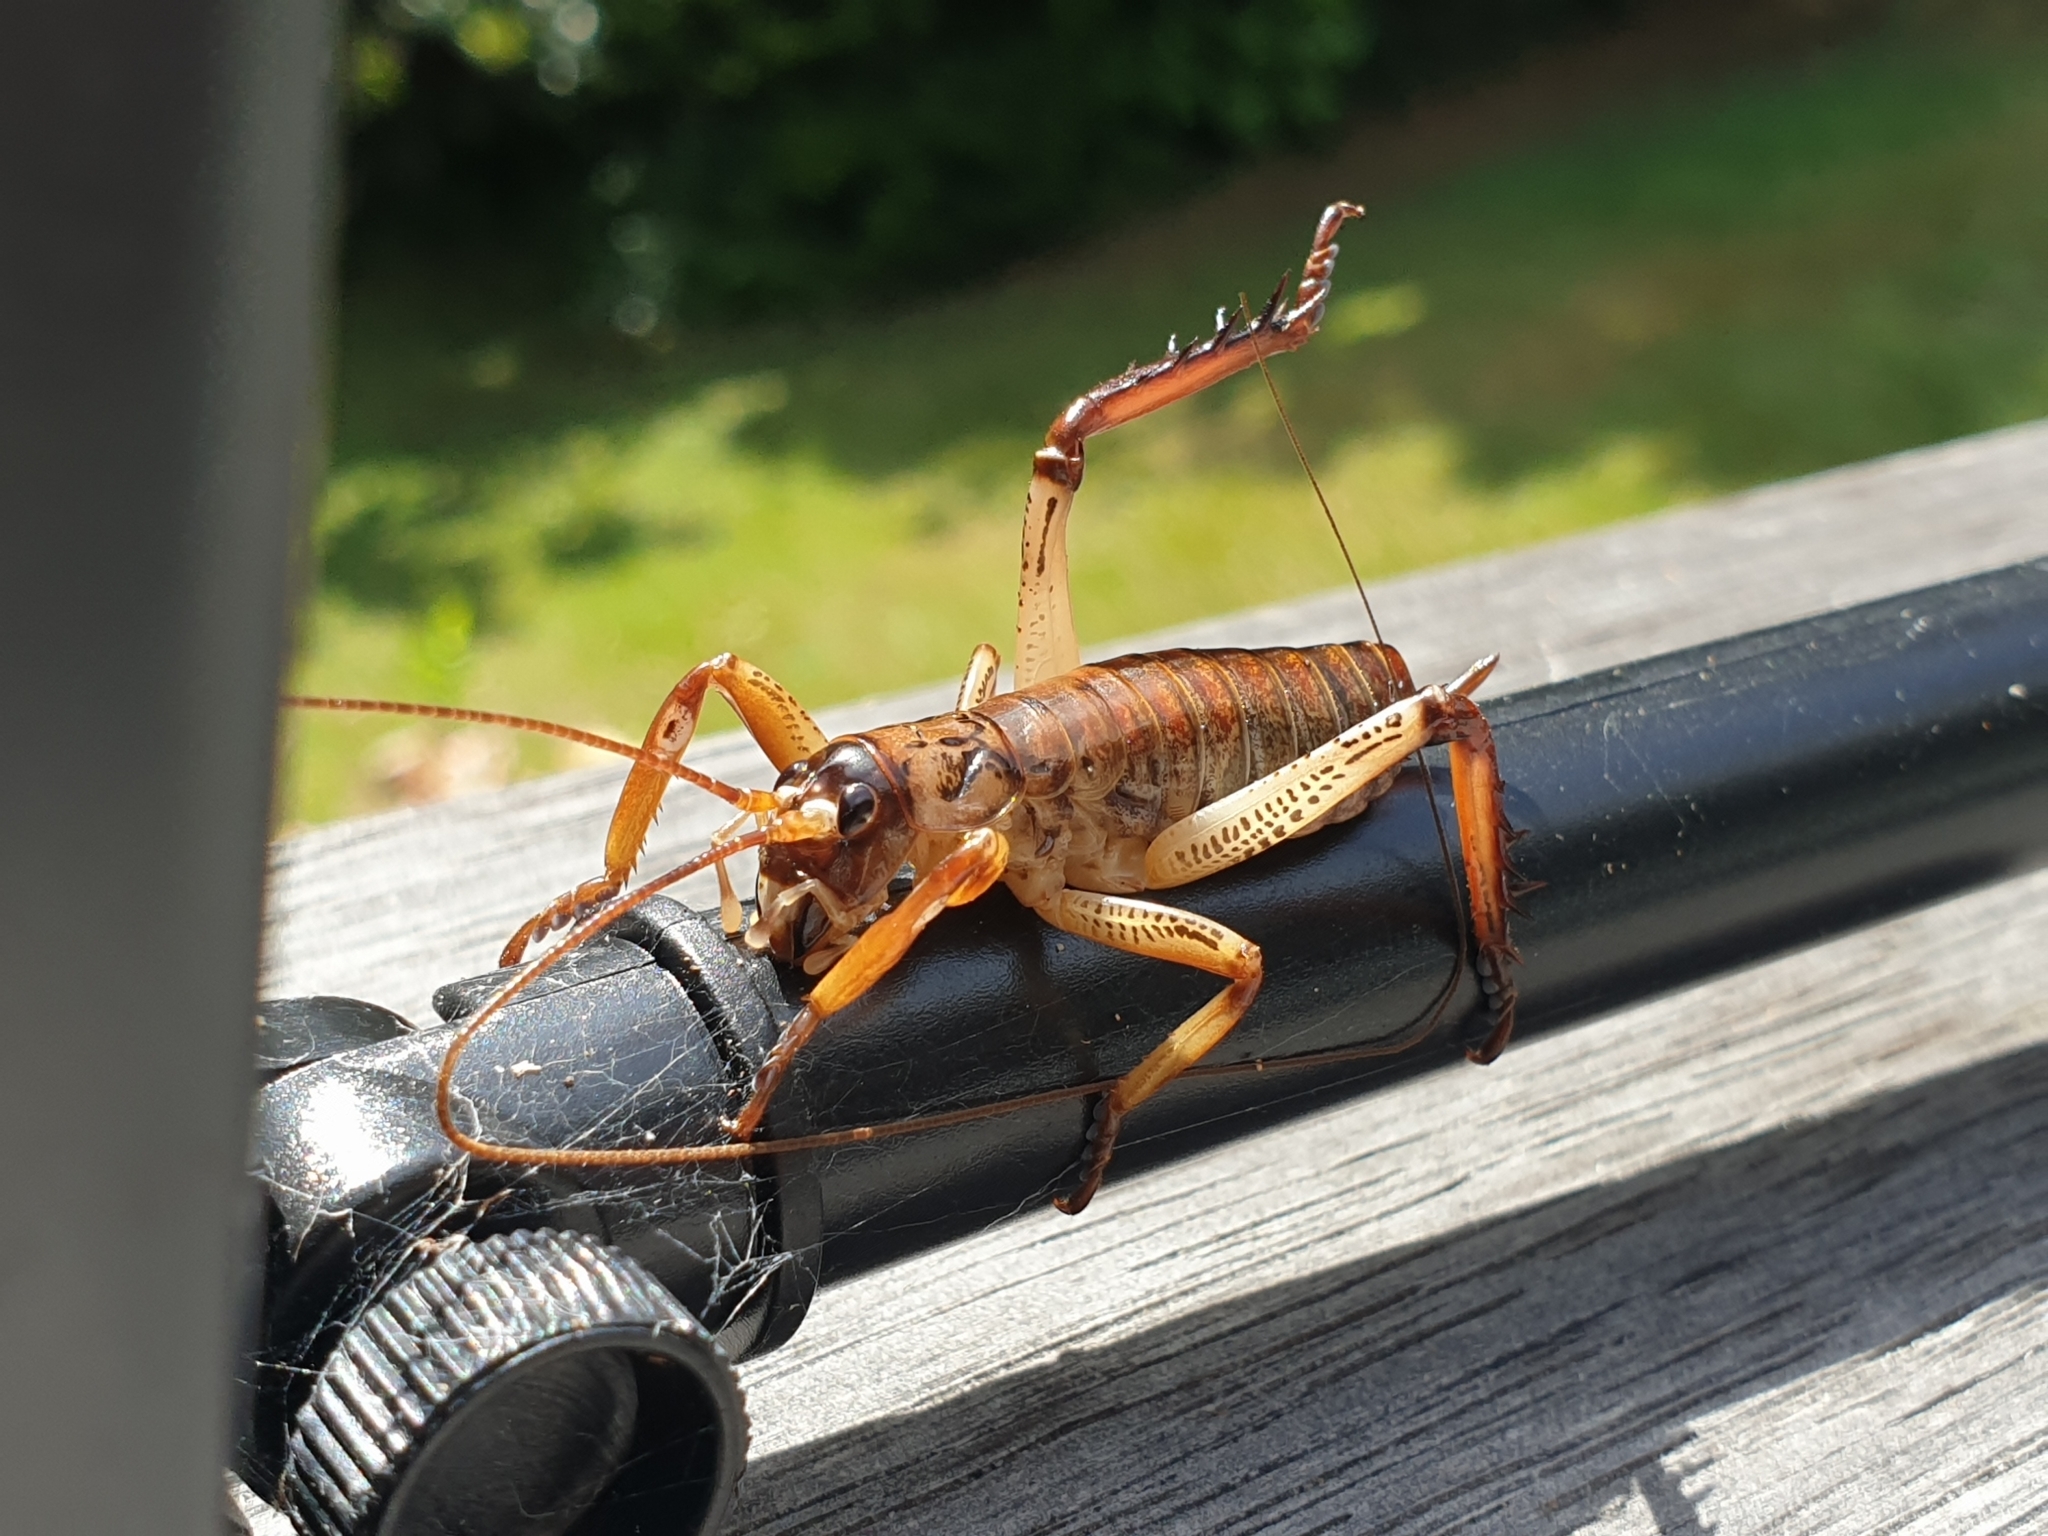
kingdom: Animalia
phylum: Arthropoda
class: Insecta
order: Orthoptera
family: Anostostomatidae
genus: Hemideina
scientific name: Hemideina thoracica
